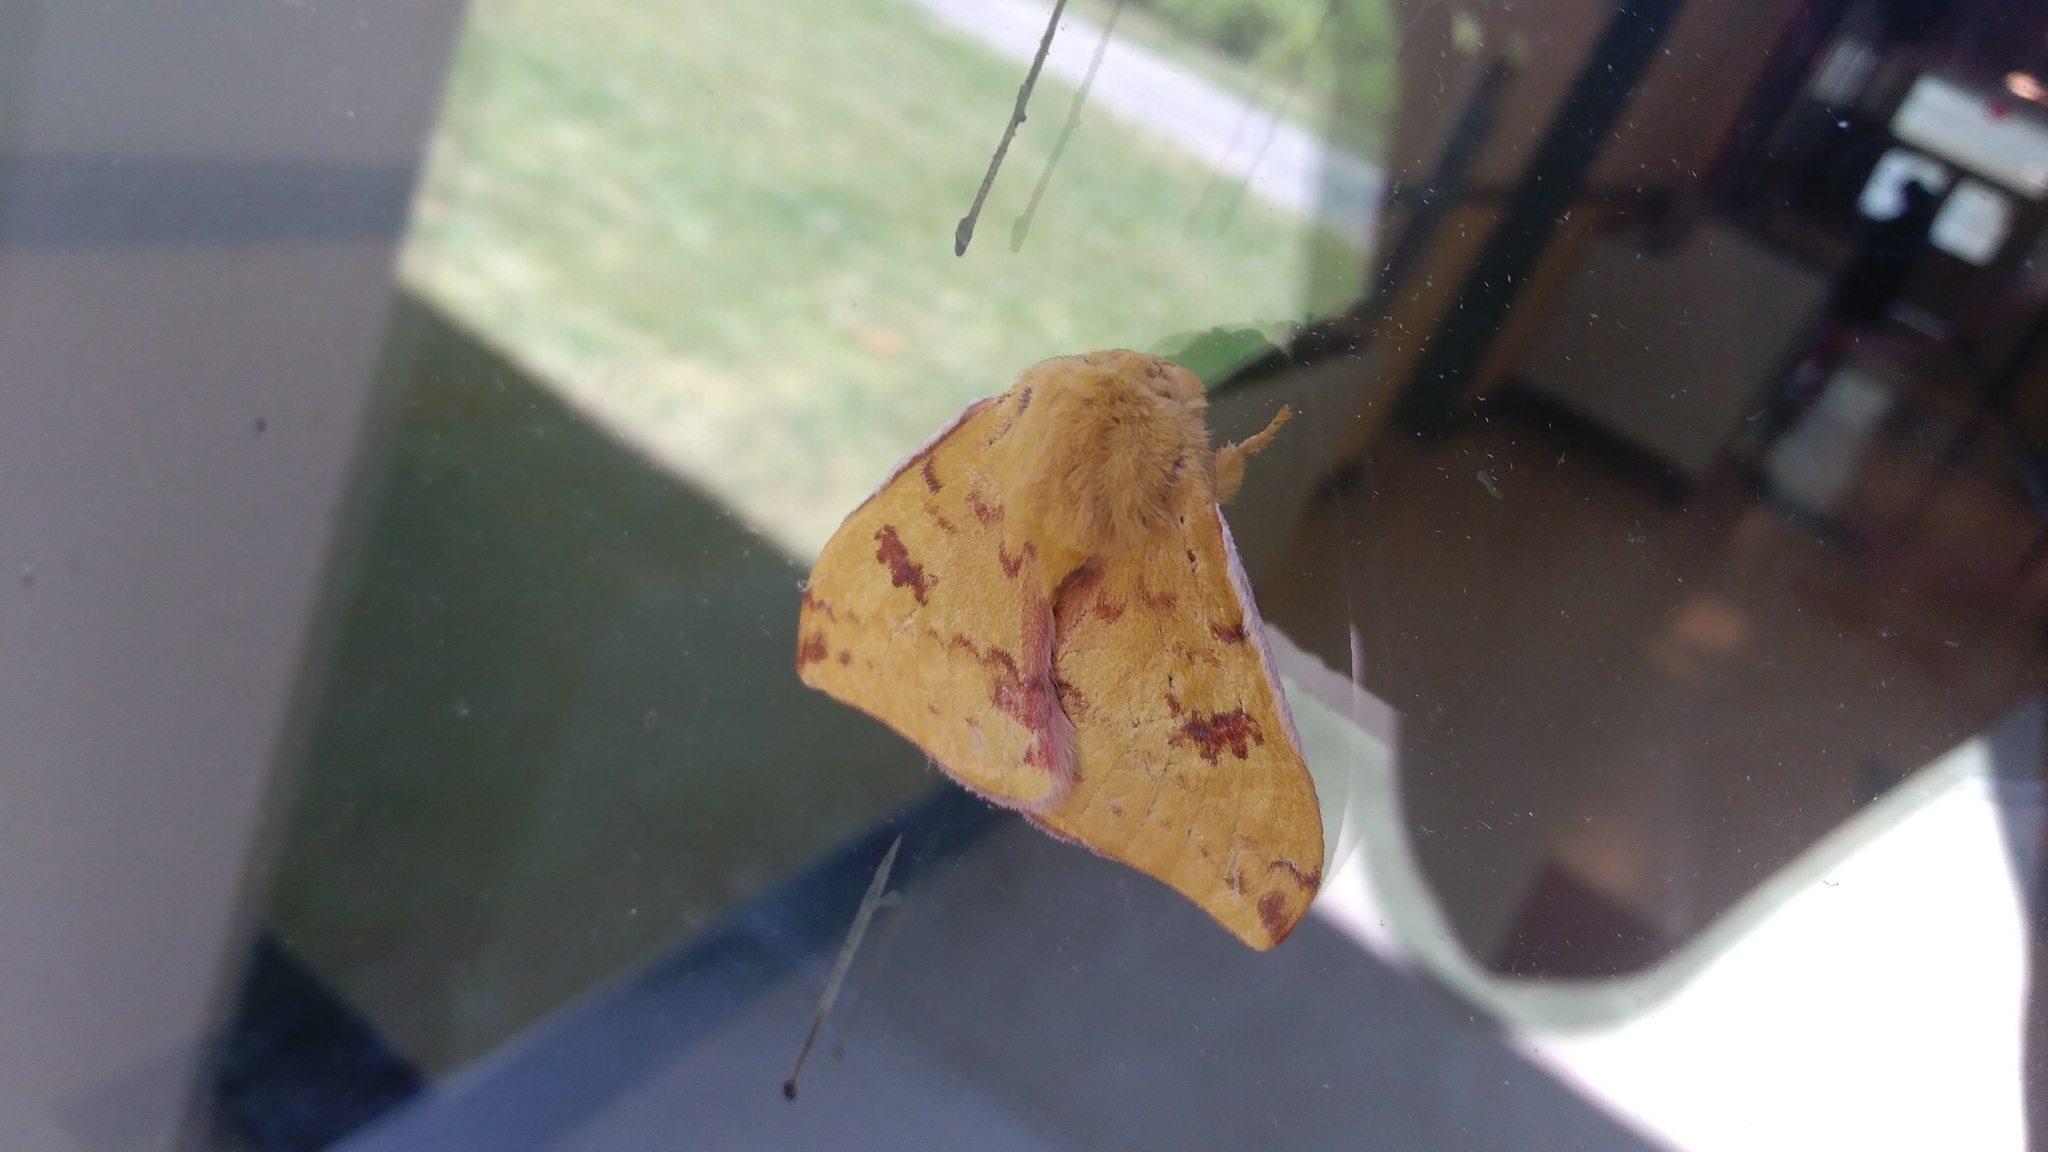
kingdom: Animalia
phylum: Arthropoda
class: Insecta
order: Lepidoptera
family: Saturniidae
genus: Automeris
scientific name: Automeris io
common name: Io moth
